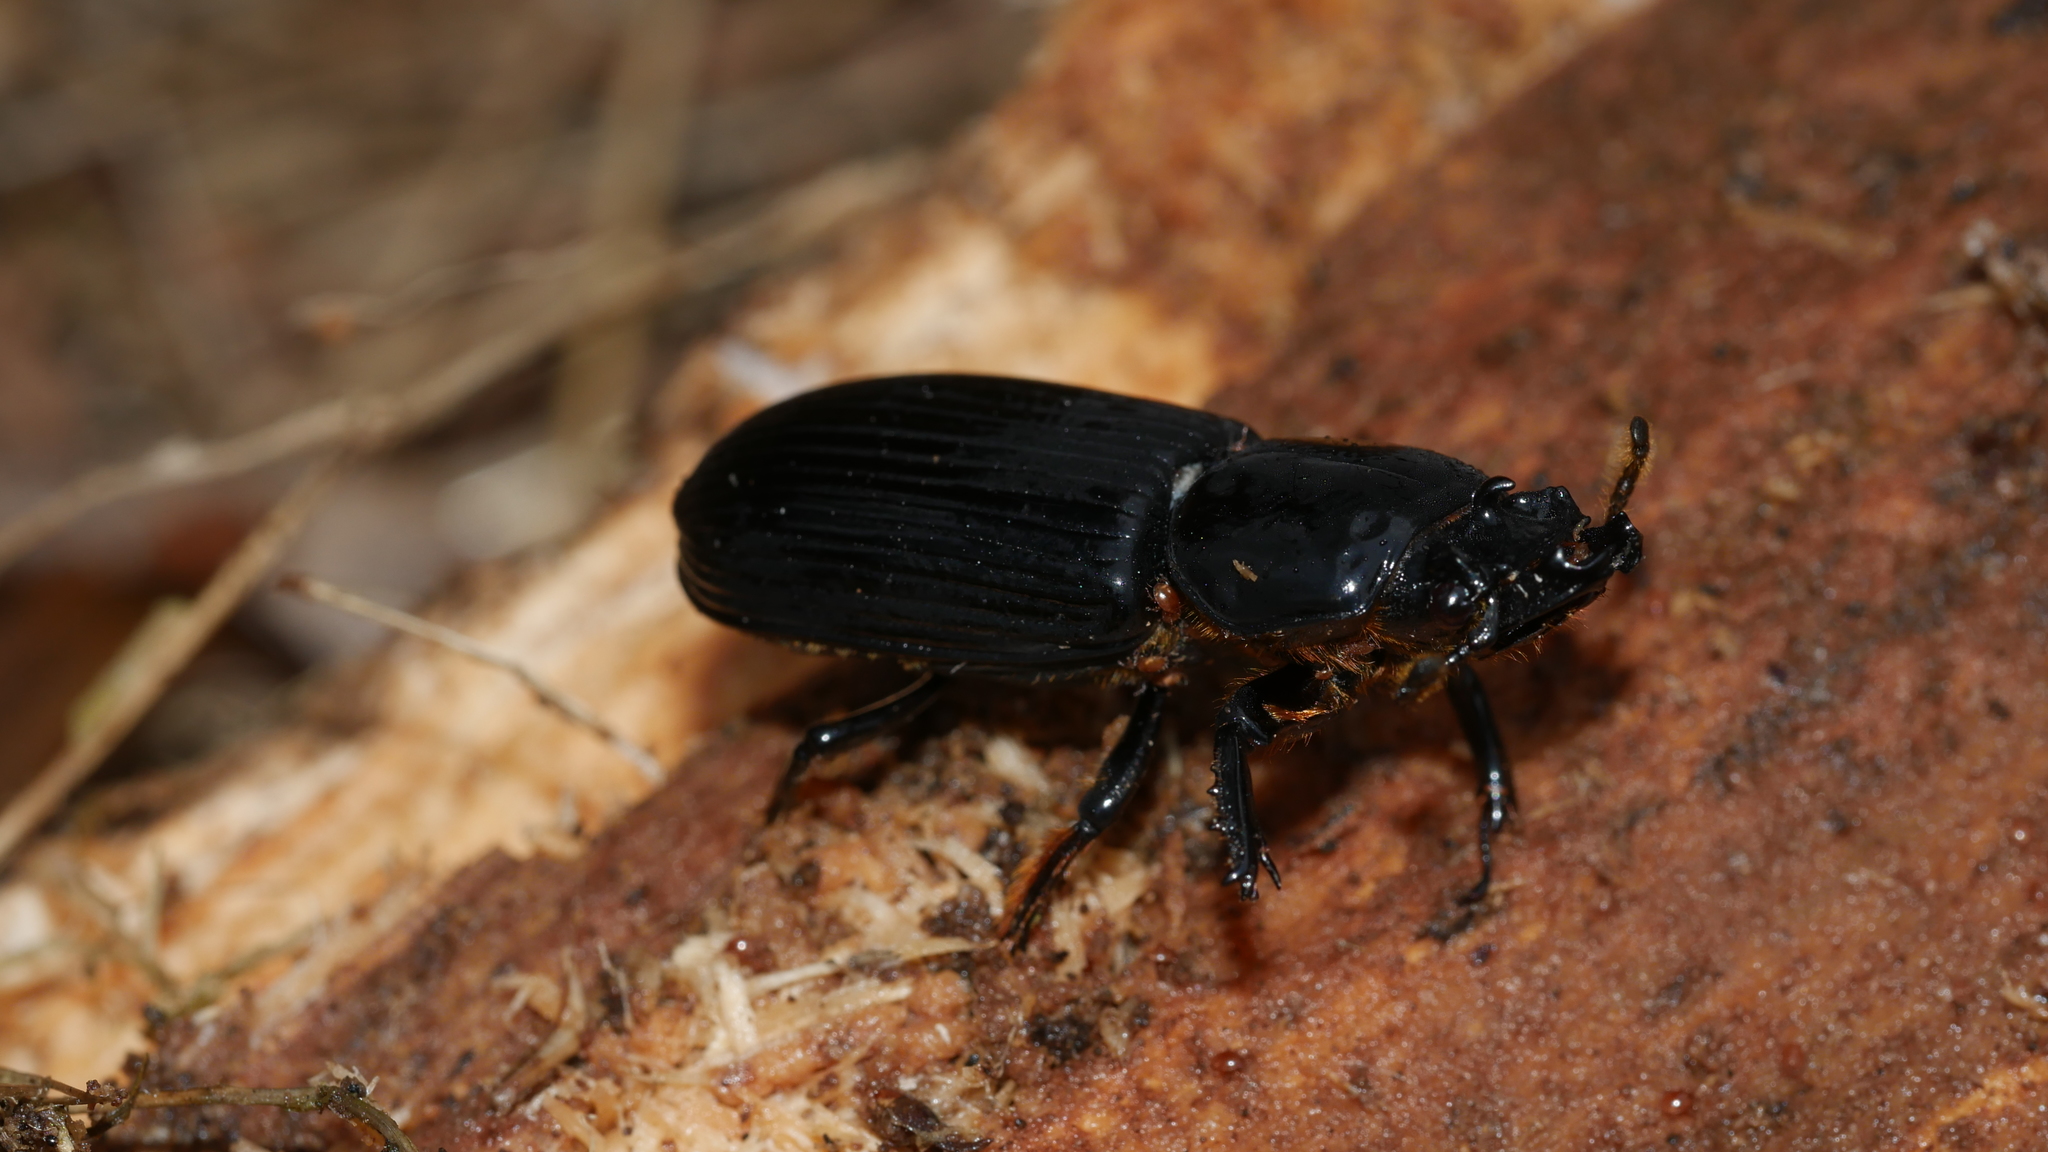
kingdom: Animalia
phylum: Arthropoda
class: Insecta
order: Coleoptera
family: Passalidae
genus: Odontotaenius
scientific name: Odontotaenius disjunctus
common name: Patent leather beetle
